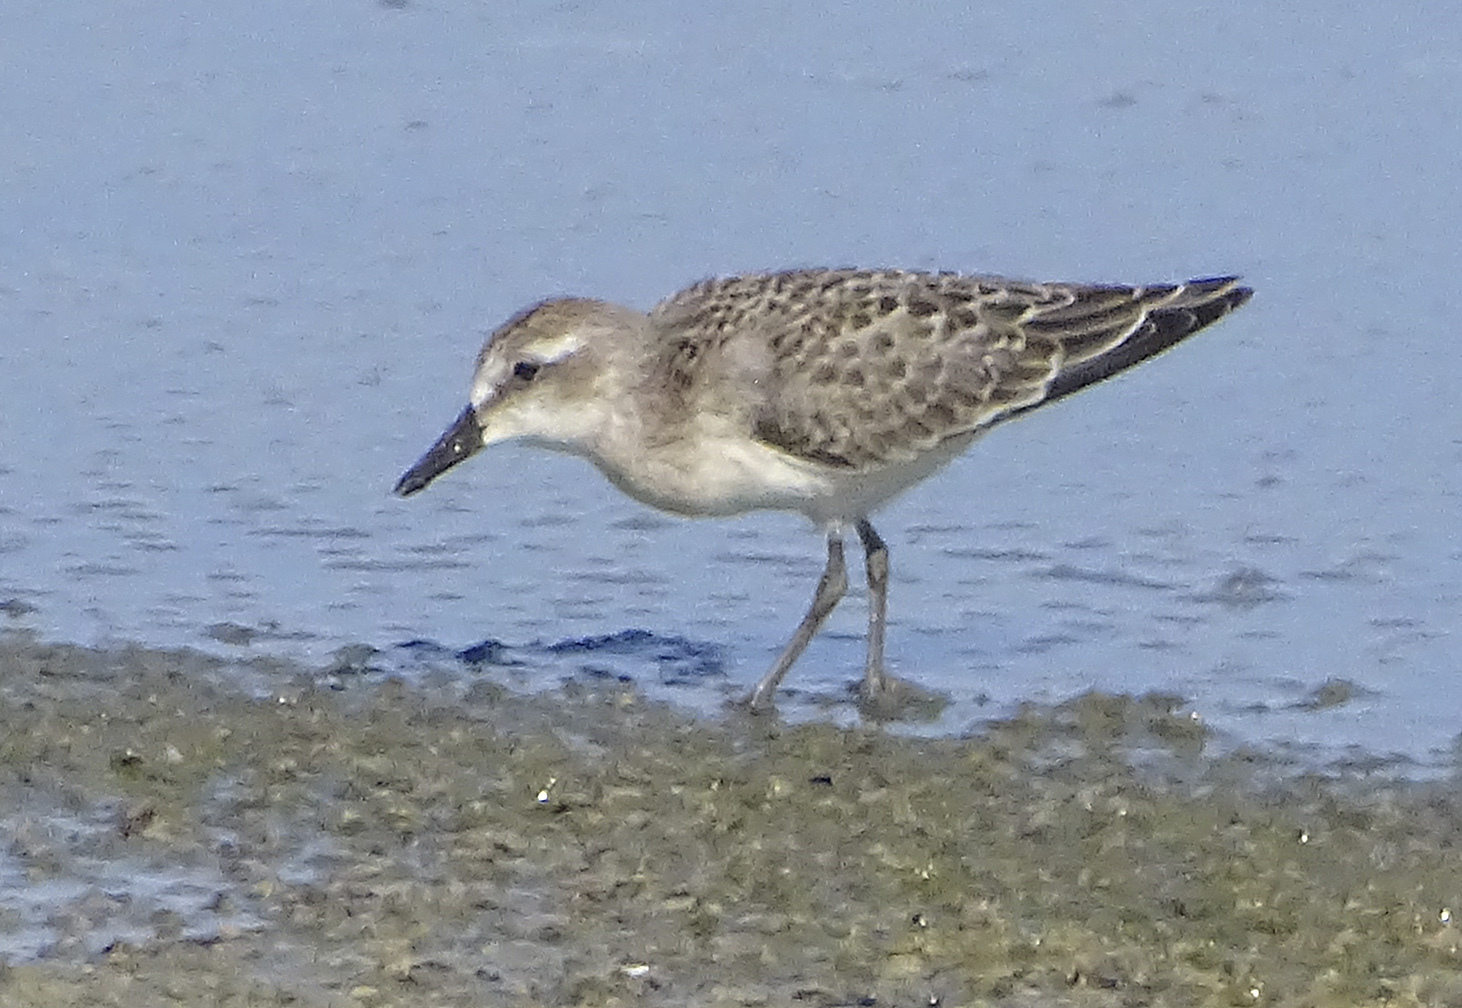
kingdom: Animalia
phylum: Chordata
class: Aves
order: Charadriiformes
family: Scolopacidae
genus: Calidris
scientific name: Calidris pusilla
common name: Semipalmated sandpiper
